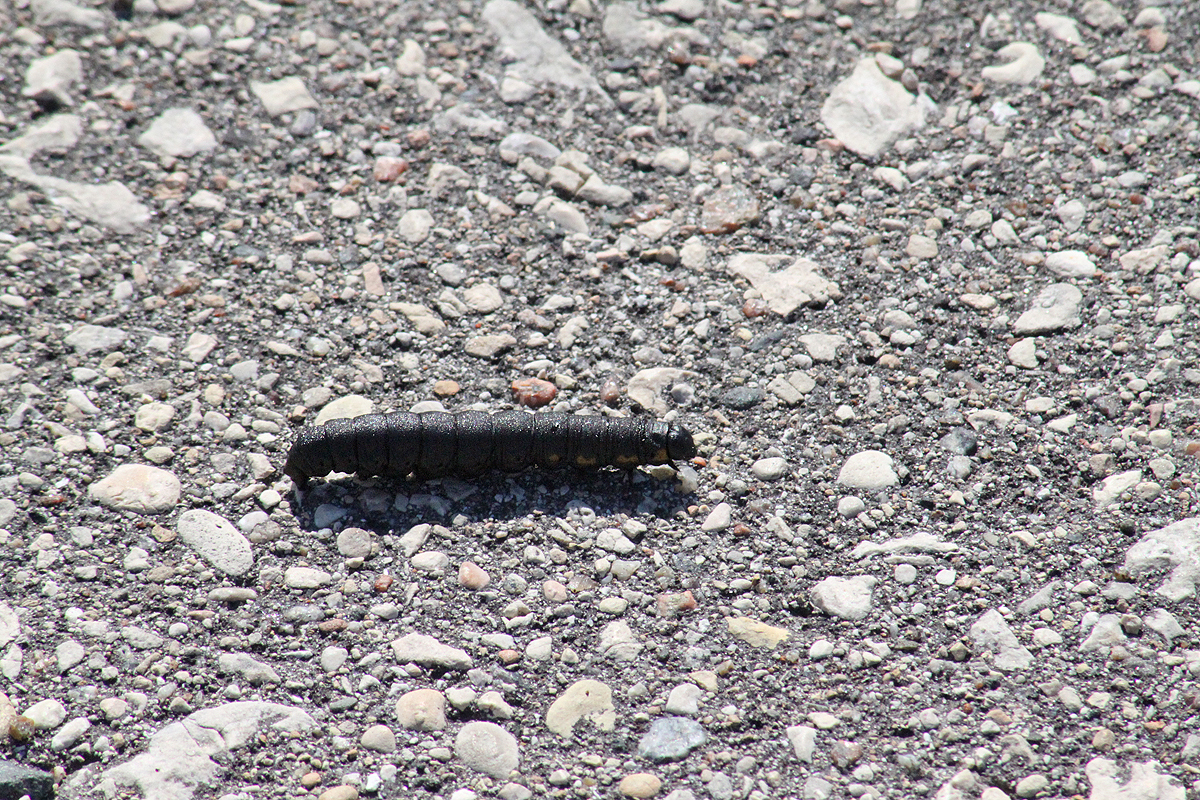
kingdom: Animalia
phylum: Arthropoda
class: Insecta
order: Lepidoptera
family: Noctuidae
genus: Cucullia
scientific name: Cucullia intermedia
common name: Goldenrod cutworm
